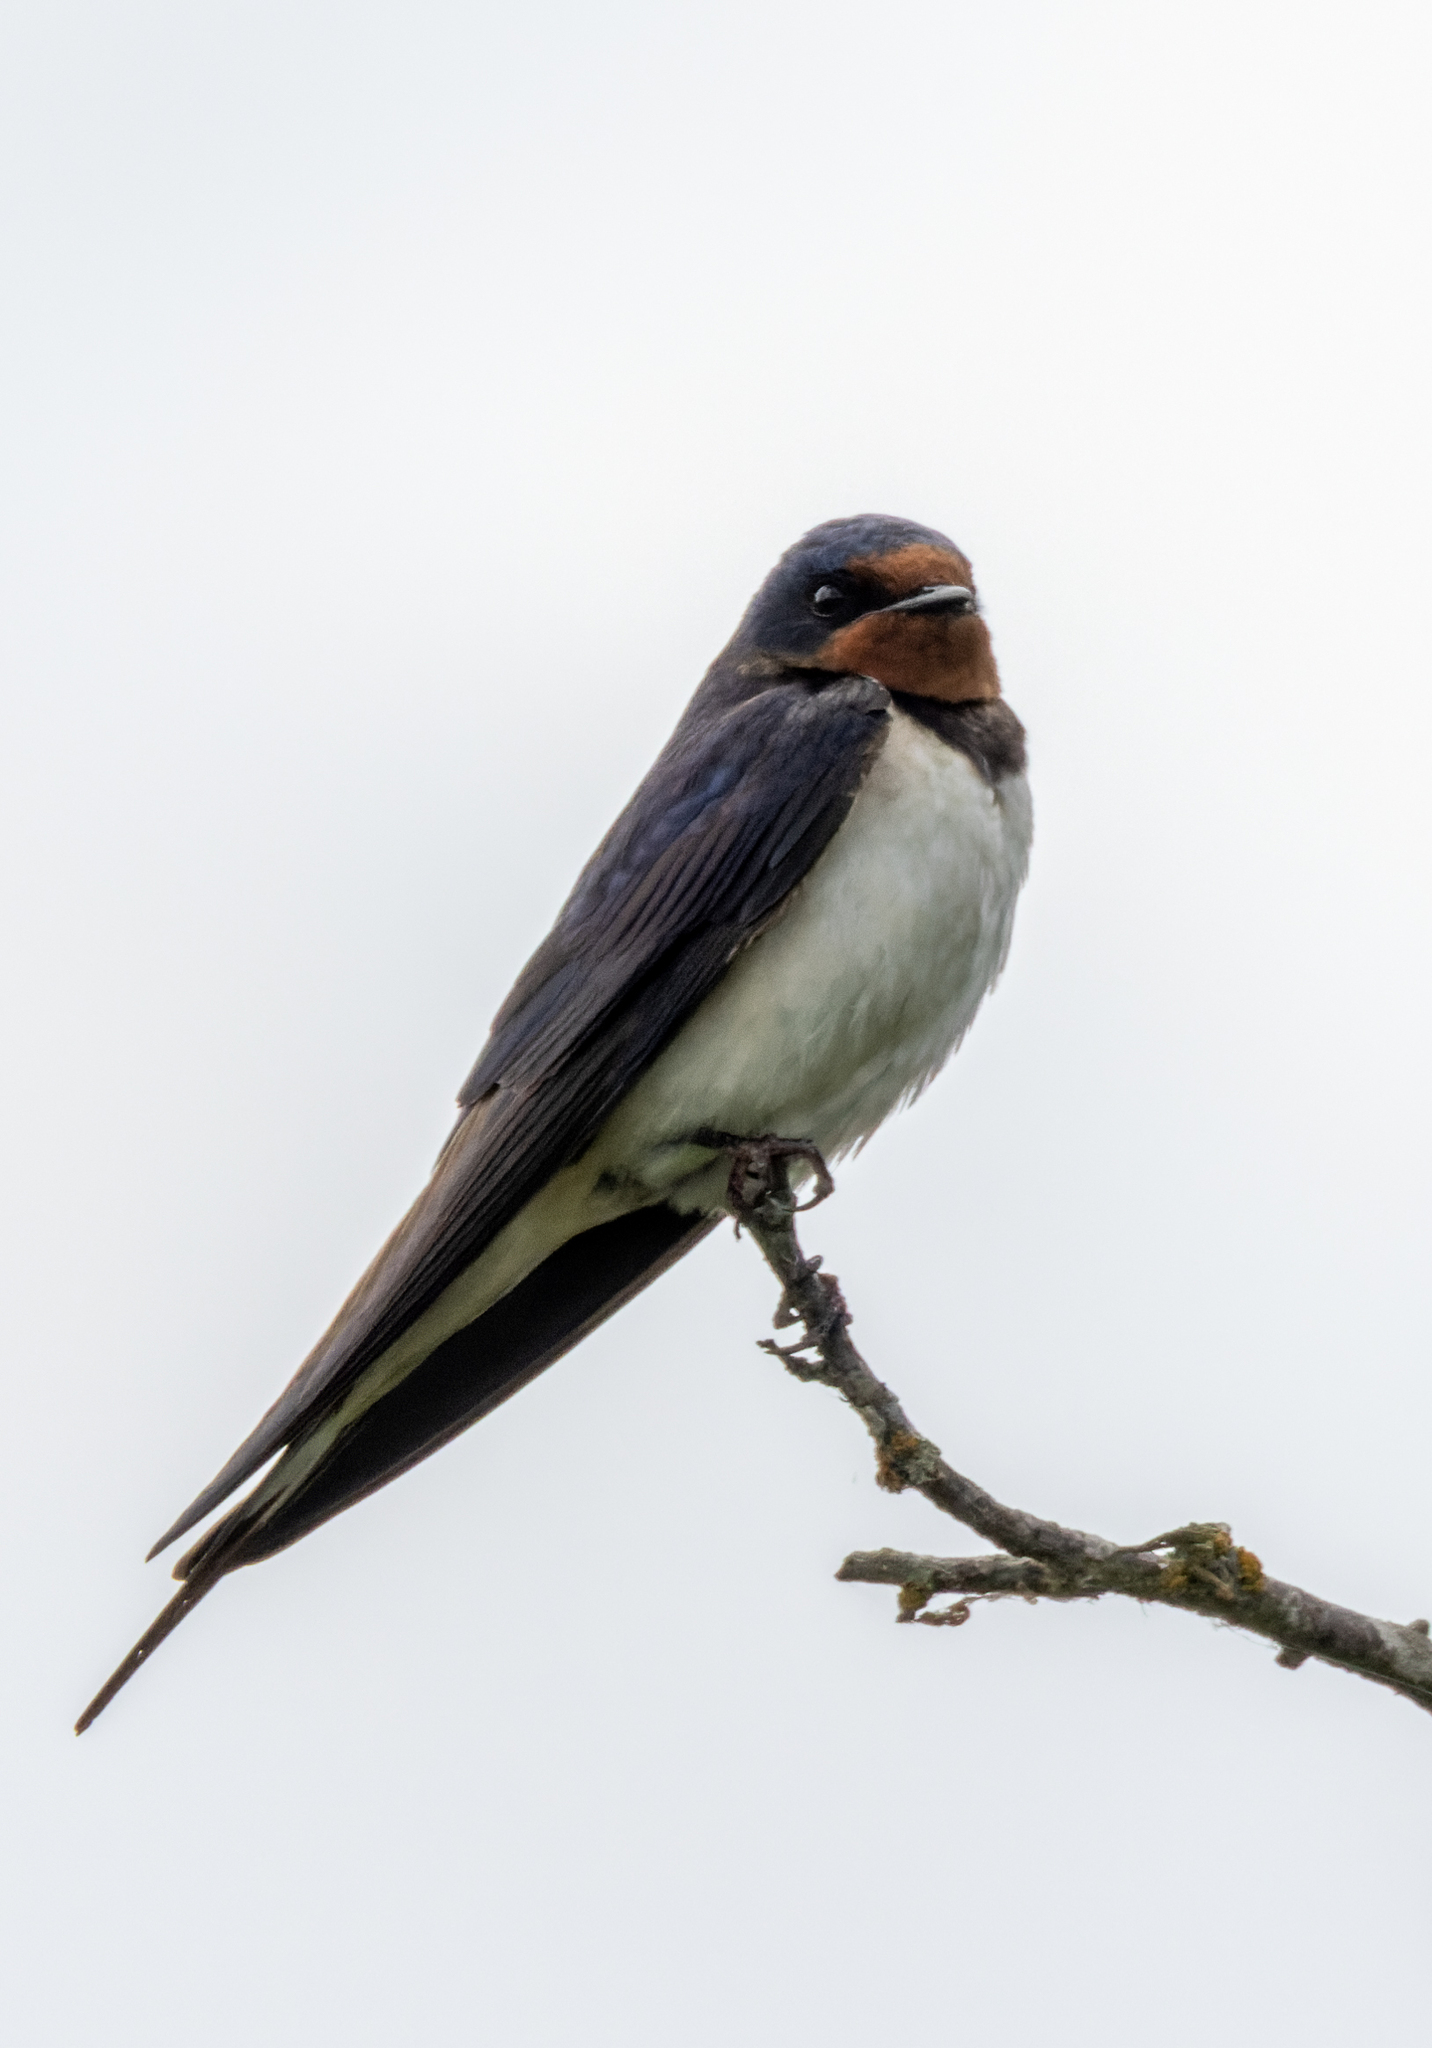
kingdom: Animalia
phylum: Chordata
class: Aves
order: Passeriformes
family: Hirundinidae
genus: Hirundo
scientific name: Hirundo rustica
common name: Barn swallow
